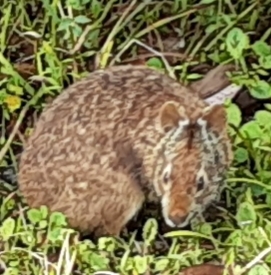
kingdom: Animalia
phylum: Chordata
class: Mammalia
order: Lagomorpha
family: Leporidae
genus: Sylvilagus
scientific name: Sylvilagus palustris
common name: Marsh rabbit
